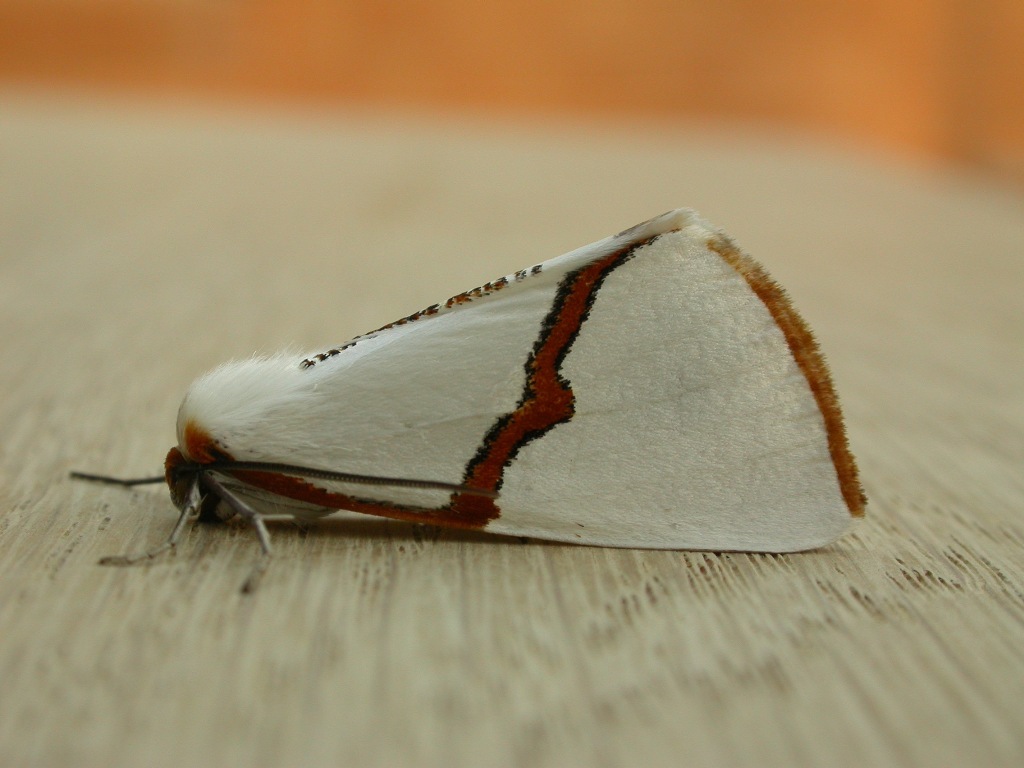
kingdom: Animalia
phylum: Arthropoda
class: Insecta
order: Lepidoptera
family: Geometridae
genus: Thalaina
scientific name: Thalaina selenaea
